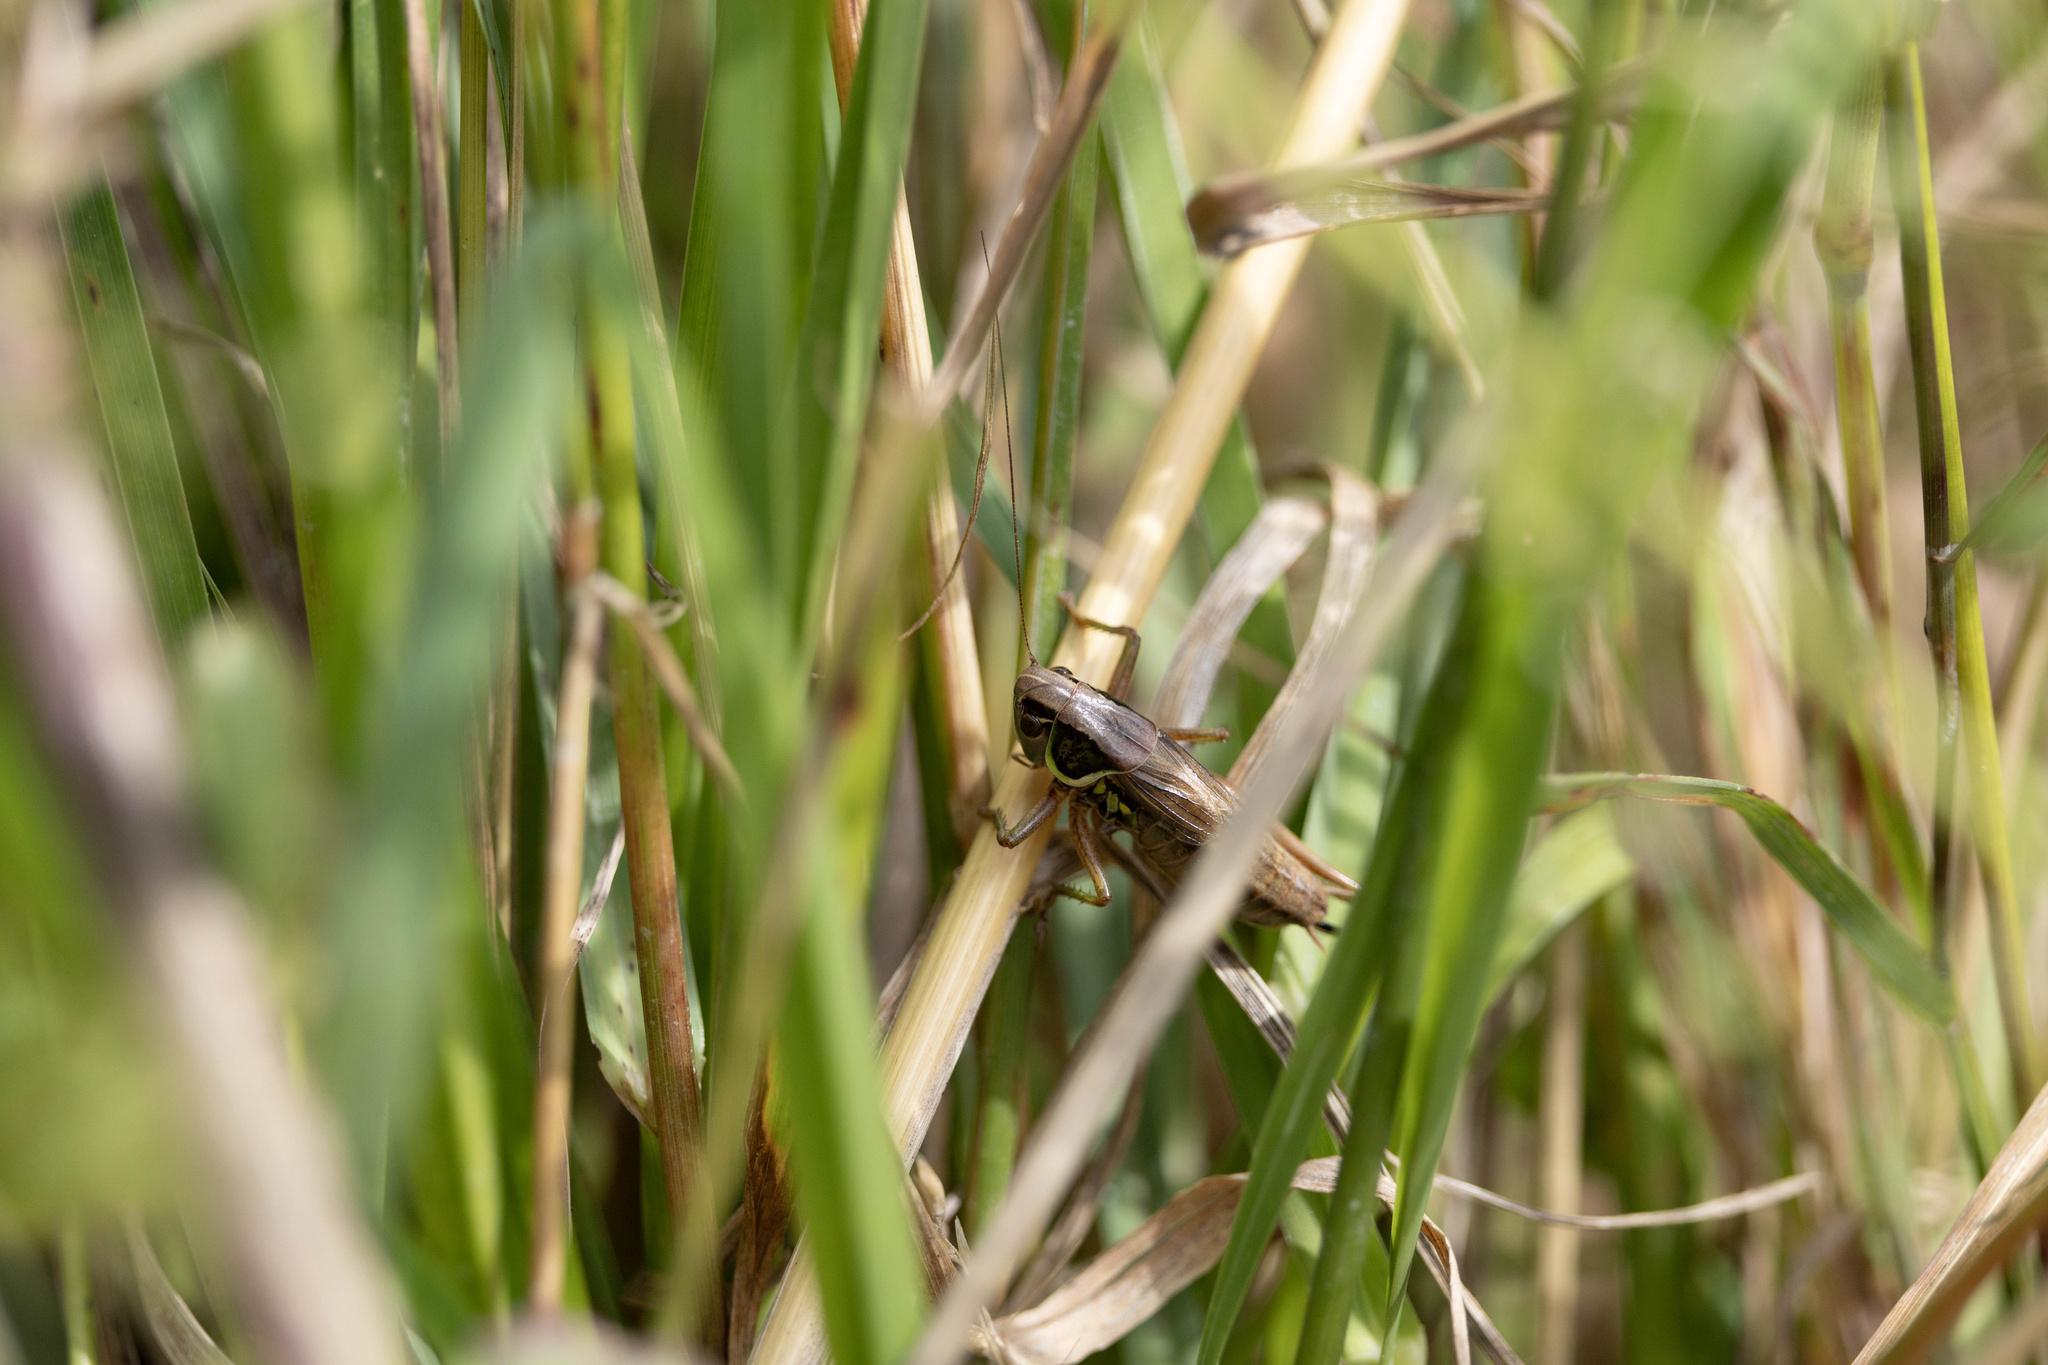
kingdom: Animalia
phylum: Arthropoda
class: Insecta
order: Orthoptera
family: Tettigoniidae
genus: Roeseliana
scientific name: Roeseliana roeselii
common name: Roesel's bush cricket
